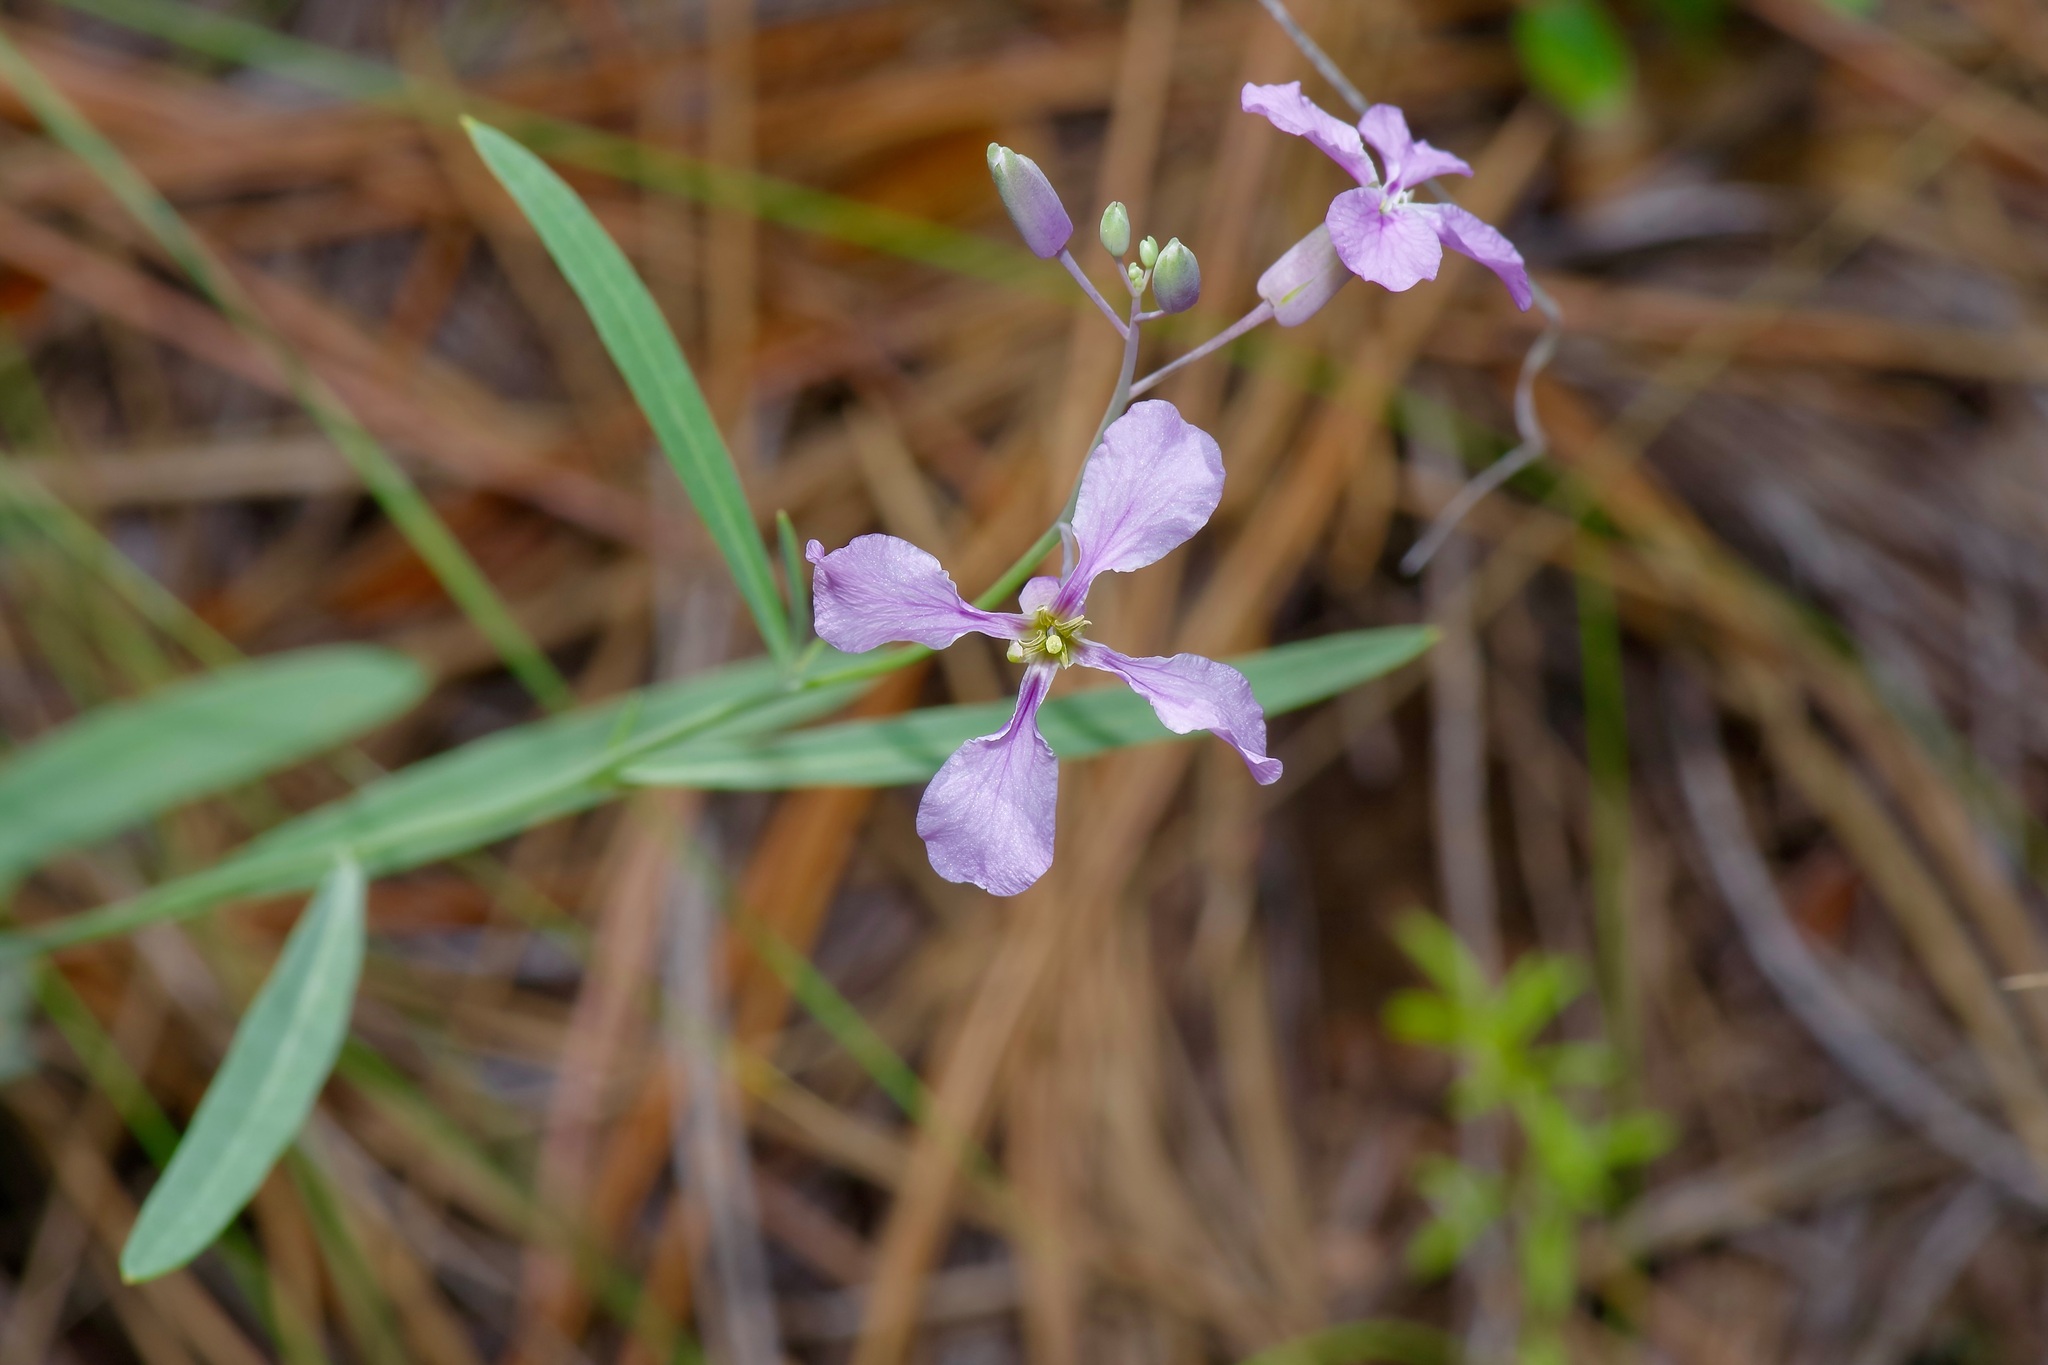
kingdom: Plantae
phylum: Tracheophyta
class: Magnoliopsida
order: Brassicales
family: Brassicaceae
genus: Hesperidanthus
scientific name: Hesperidanthus linearifolius
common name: Slim-leaf plains mustard
